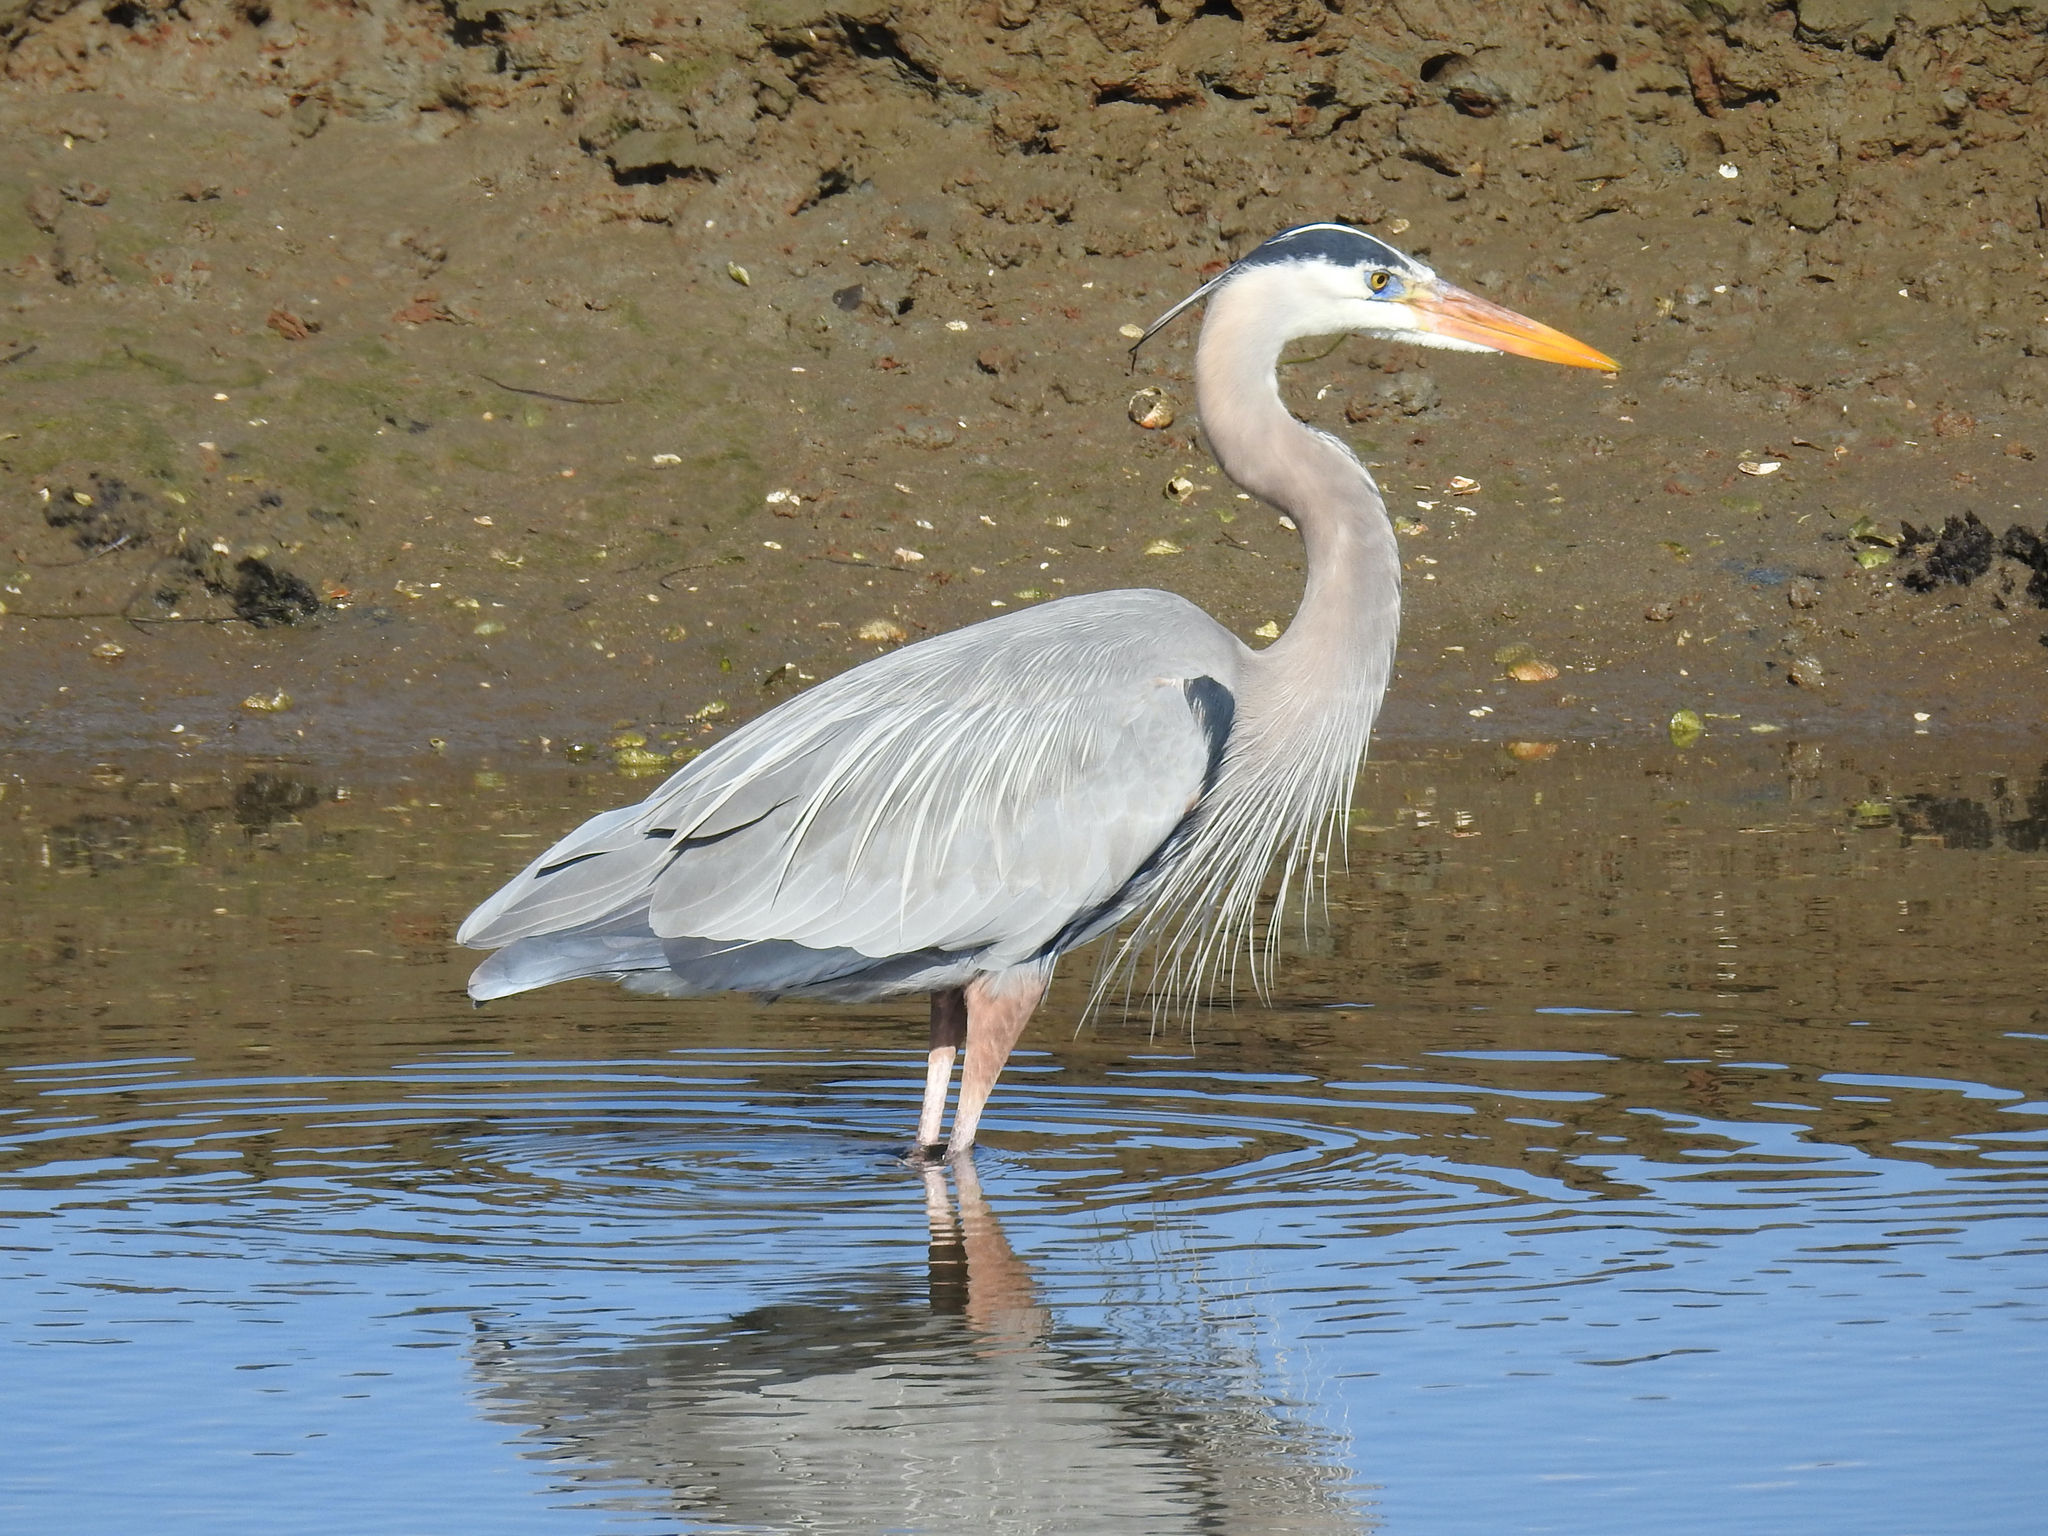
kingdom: Animalia
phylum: Chordata
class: Aves
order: Pelecaniformes
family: Ardeidae
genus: Ardea
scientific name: Ardea herodias
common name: Great blue heron
